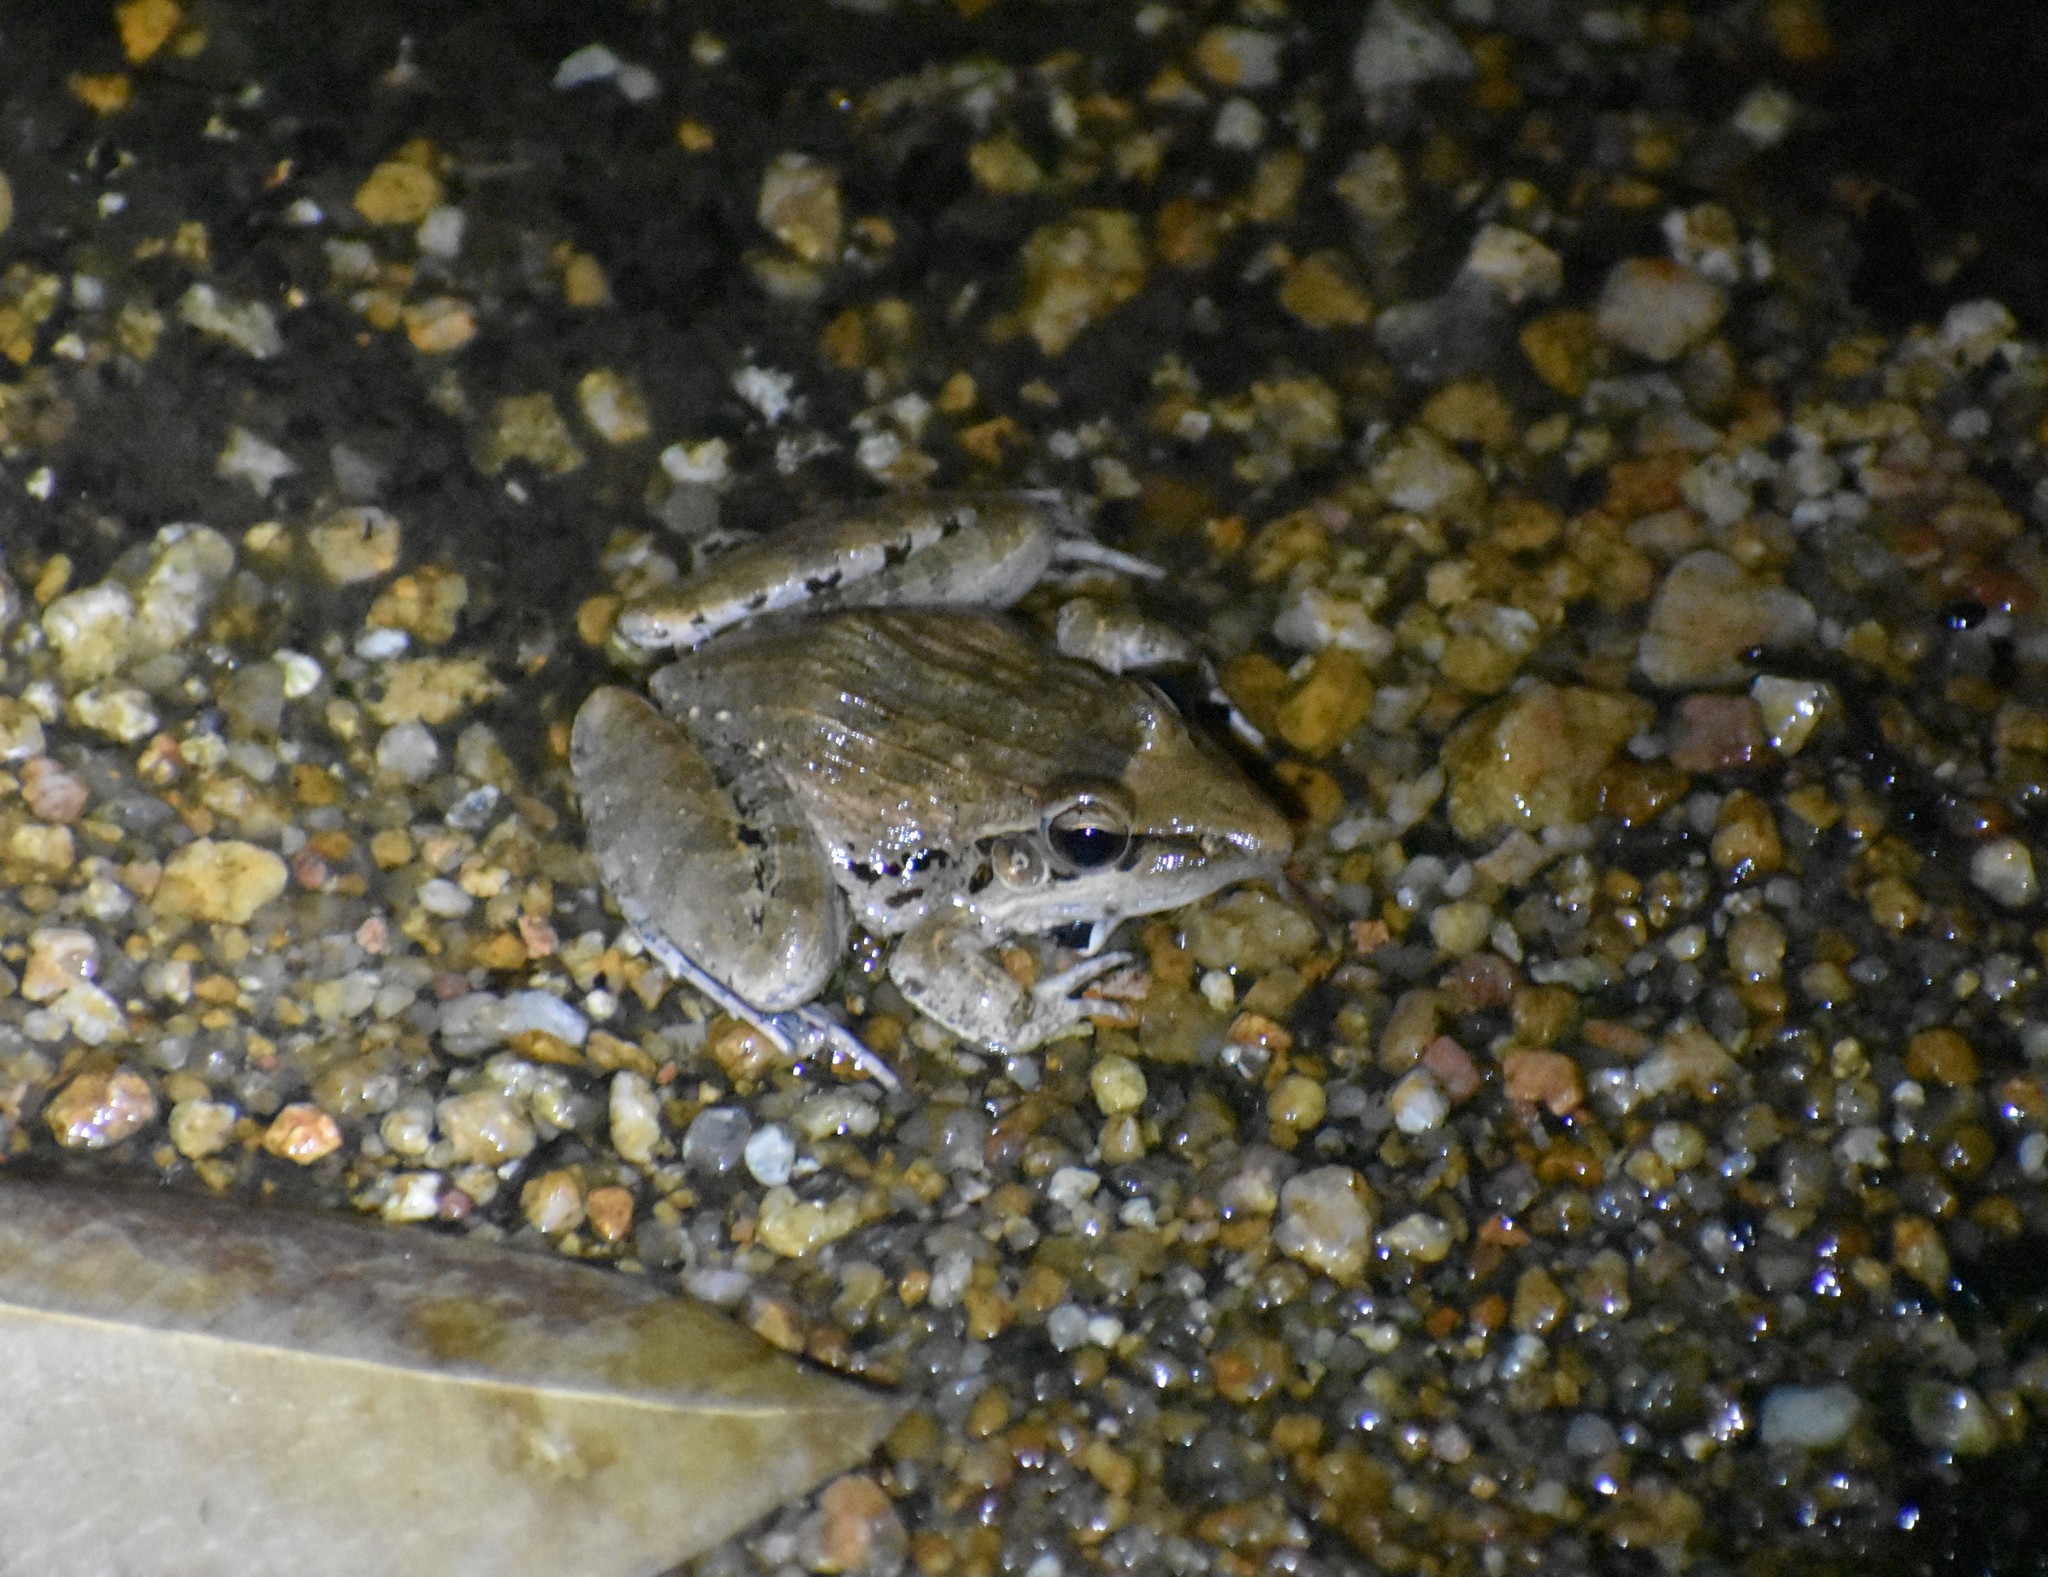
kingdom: Animalia
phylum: Chordata
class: Amphibia
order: Anura
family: Ptychadenidae
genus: Ptychadena
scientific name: Ptychadena anchietae
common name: Anchieta's ridged frog
